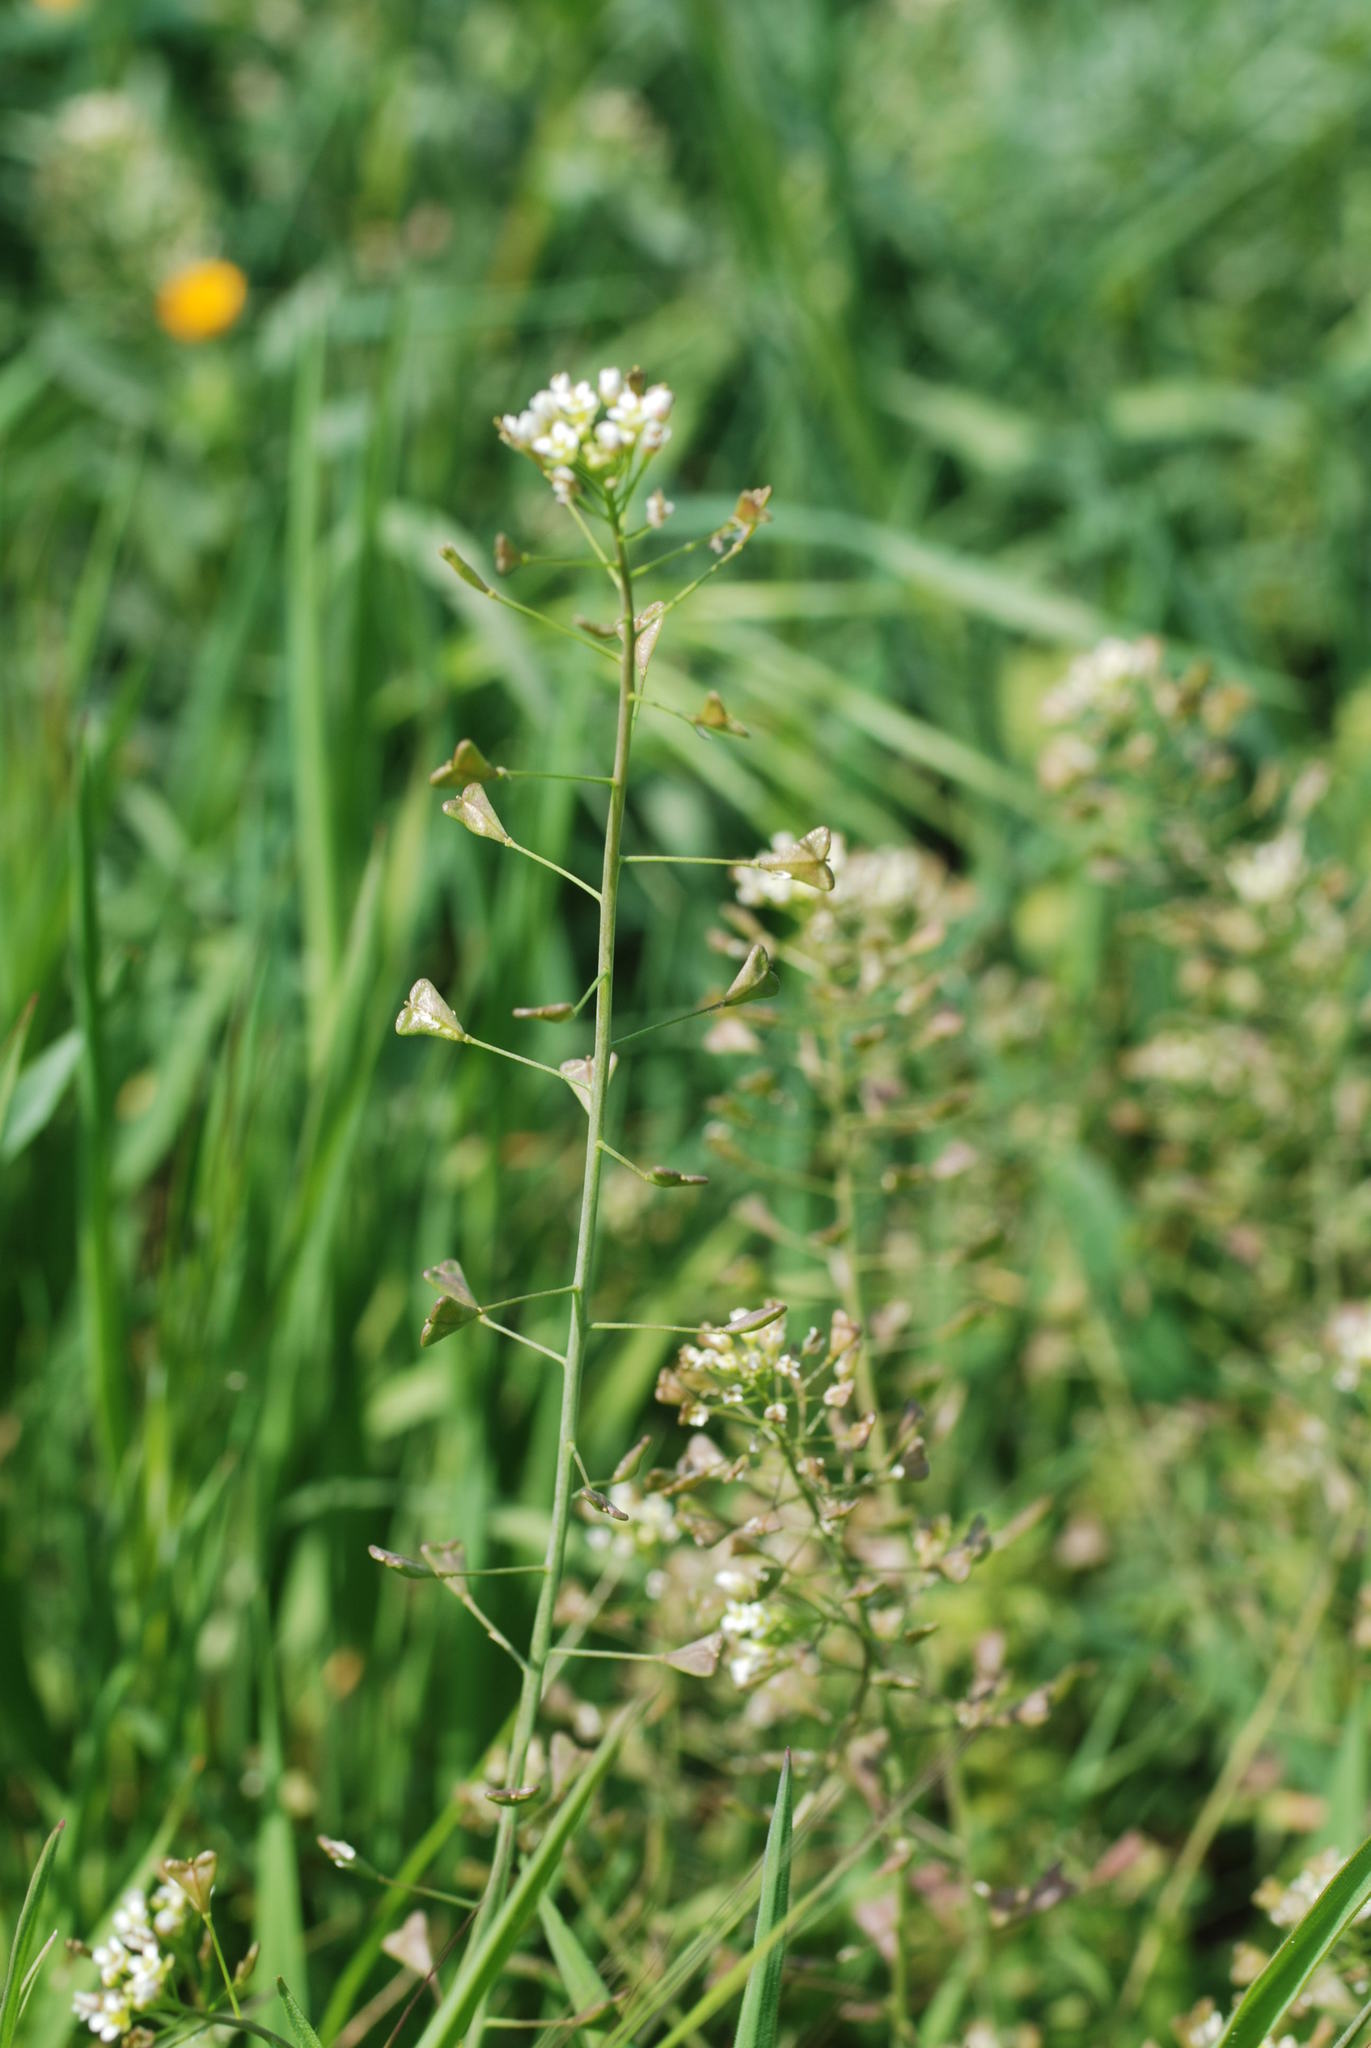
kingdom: Plantae
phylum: Tracheophyta
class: Magnoliopsida
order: Brassicales
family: Brassicaceae
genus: Capsella
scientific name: Capsella bursa-pastoris
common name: Shepherd's purse
